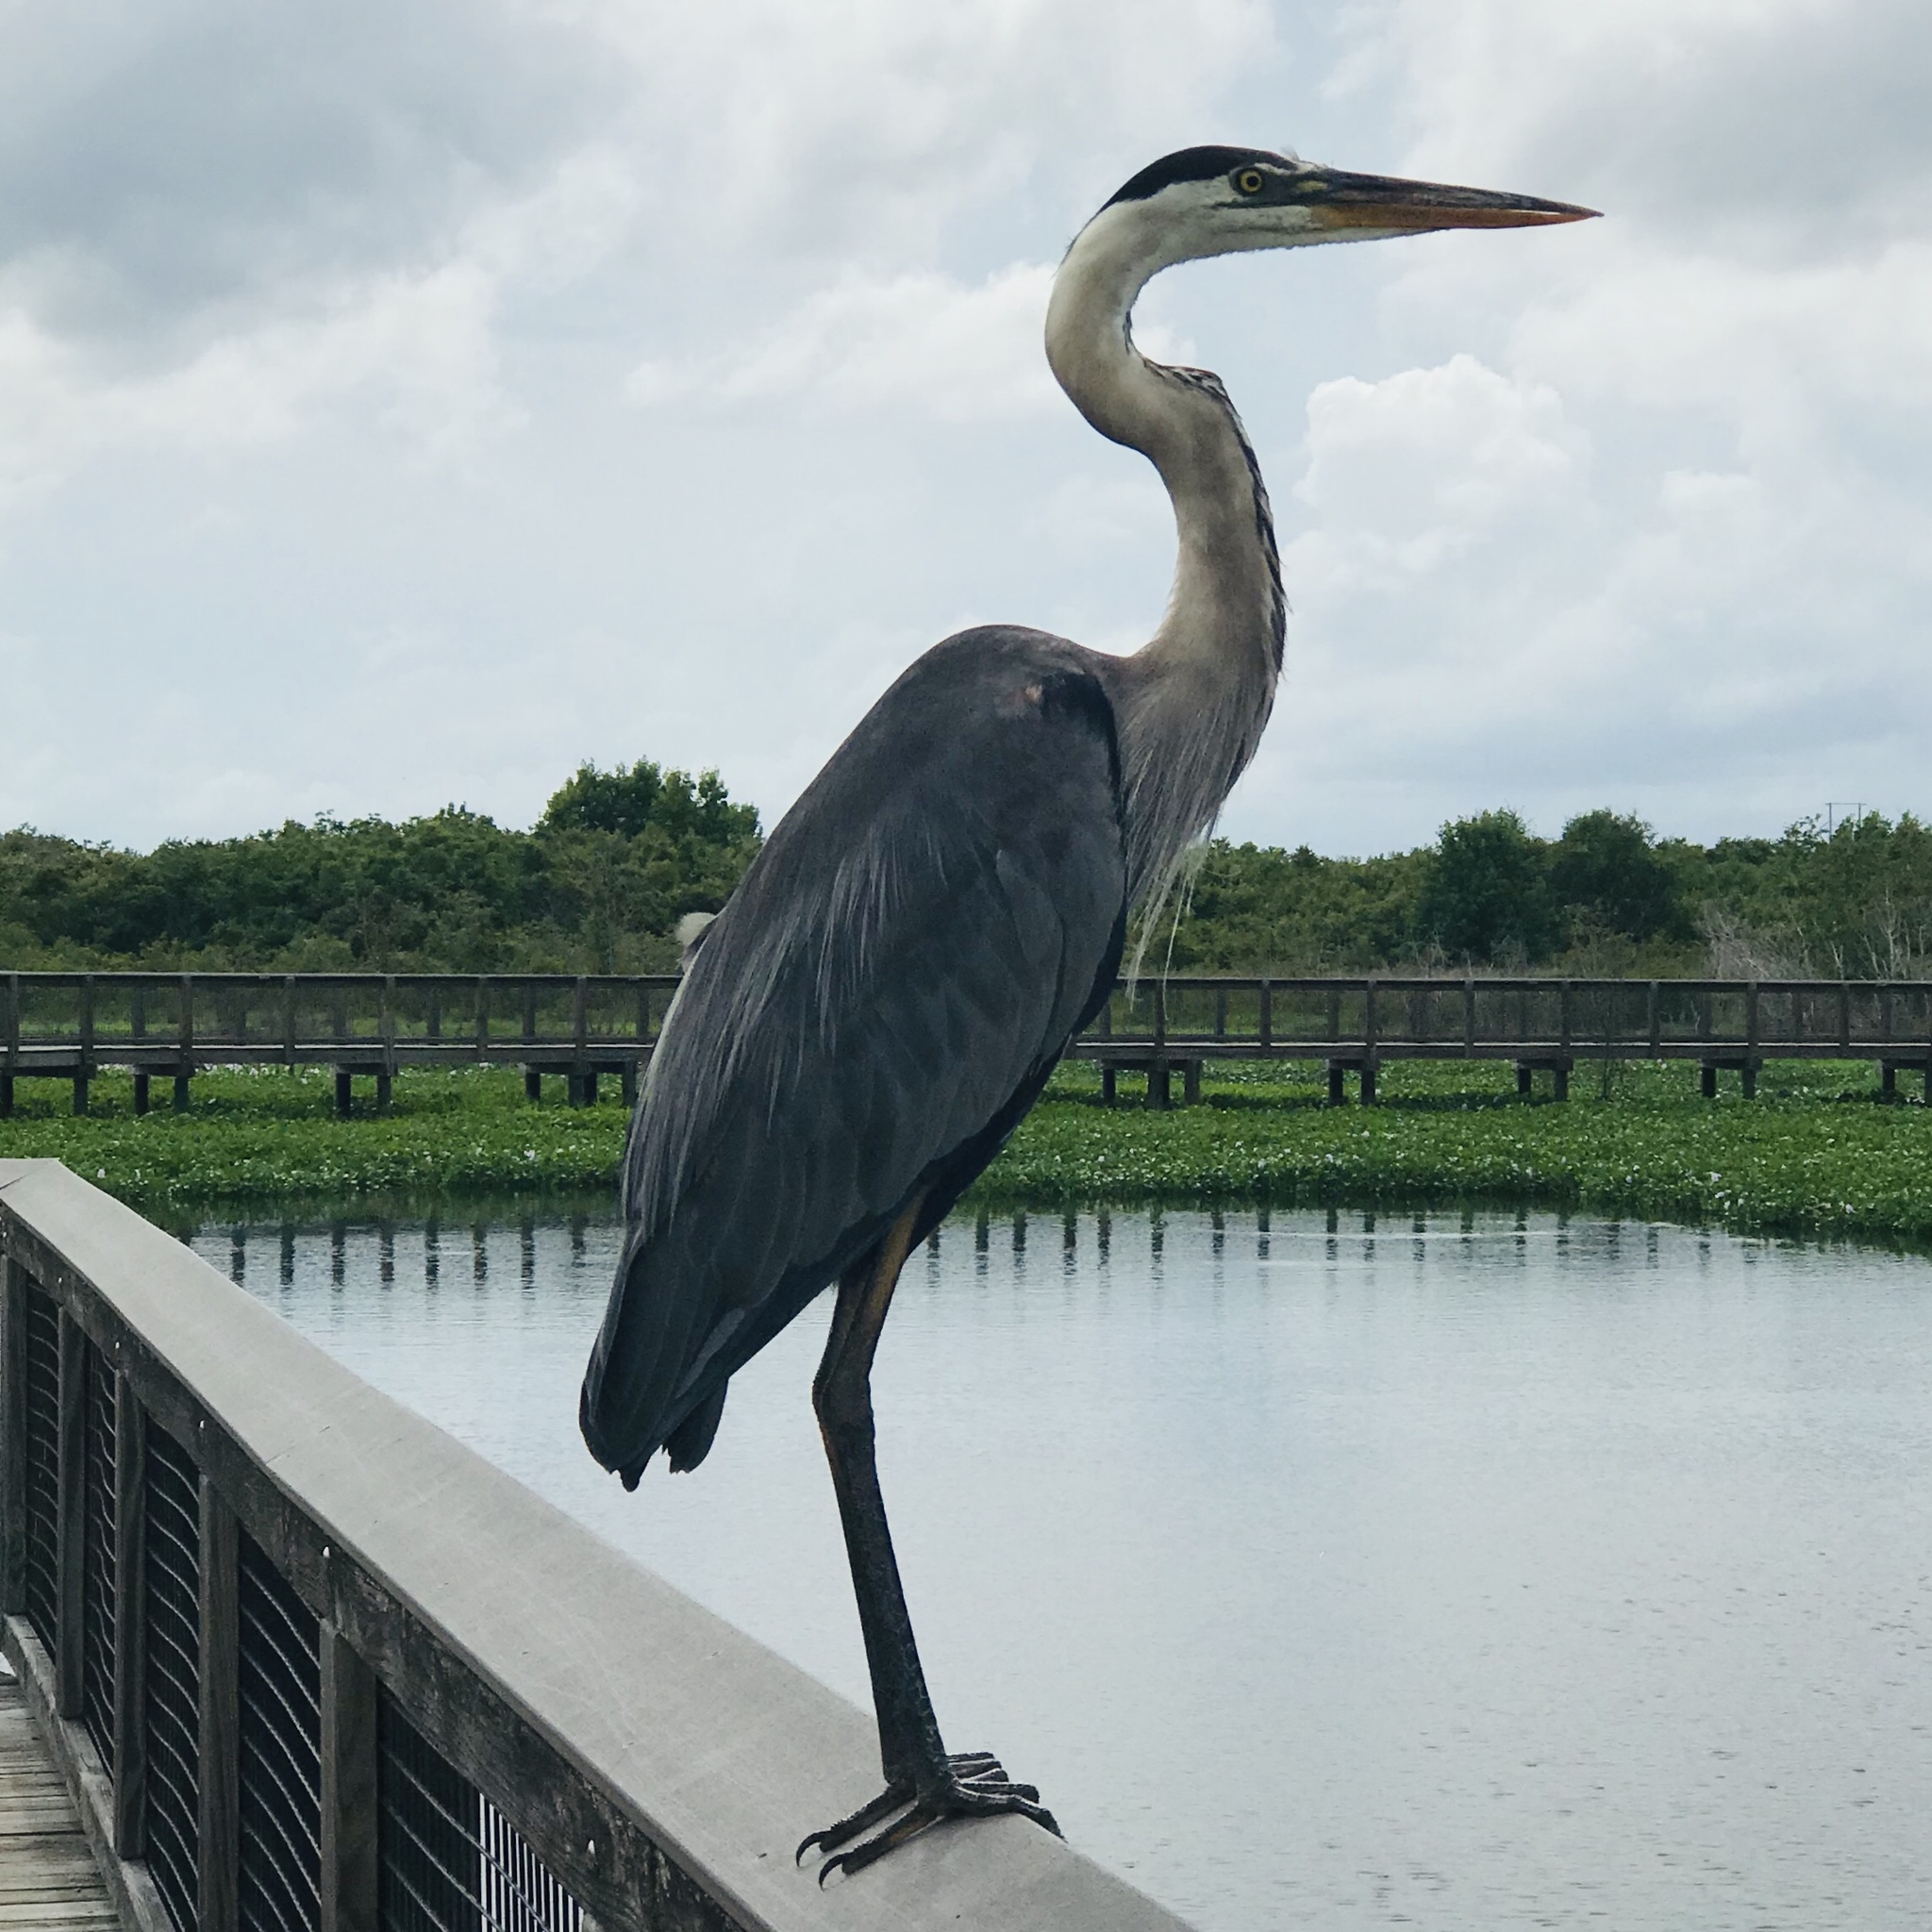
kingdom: Animalia
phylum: Chordata
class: Aves
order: Pelecaniformes
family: Ardeidae
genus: Ardea
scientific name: Ardea herodias
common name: Great blue heron
